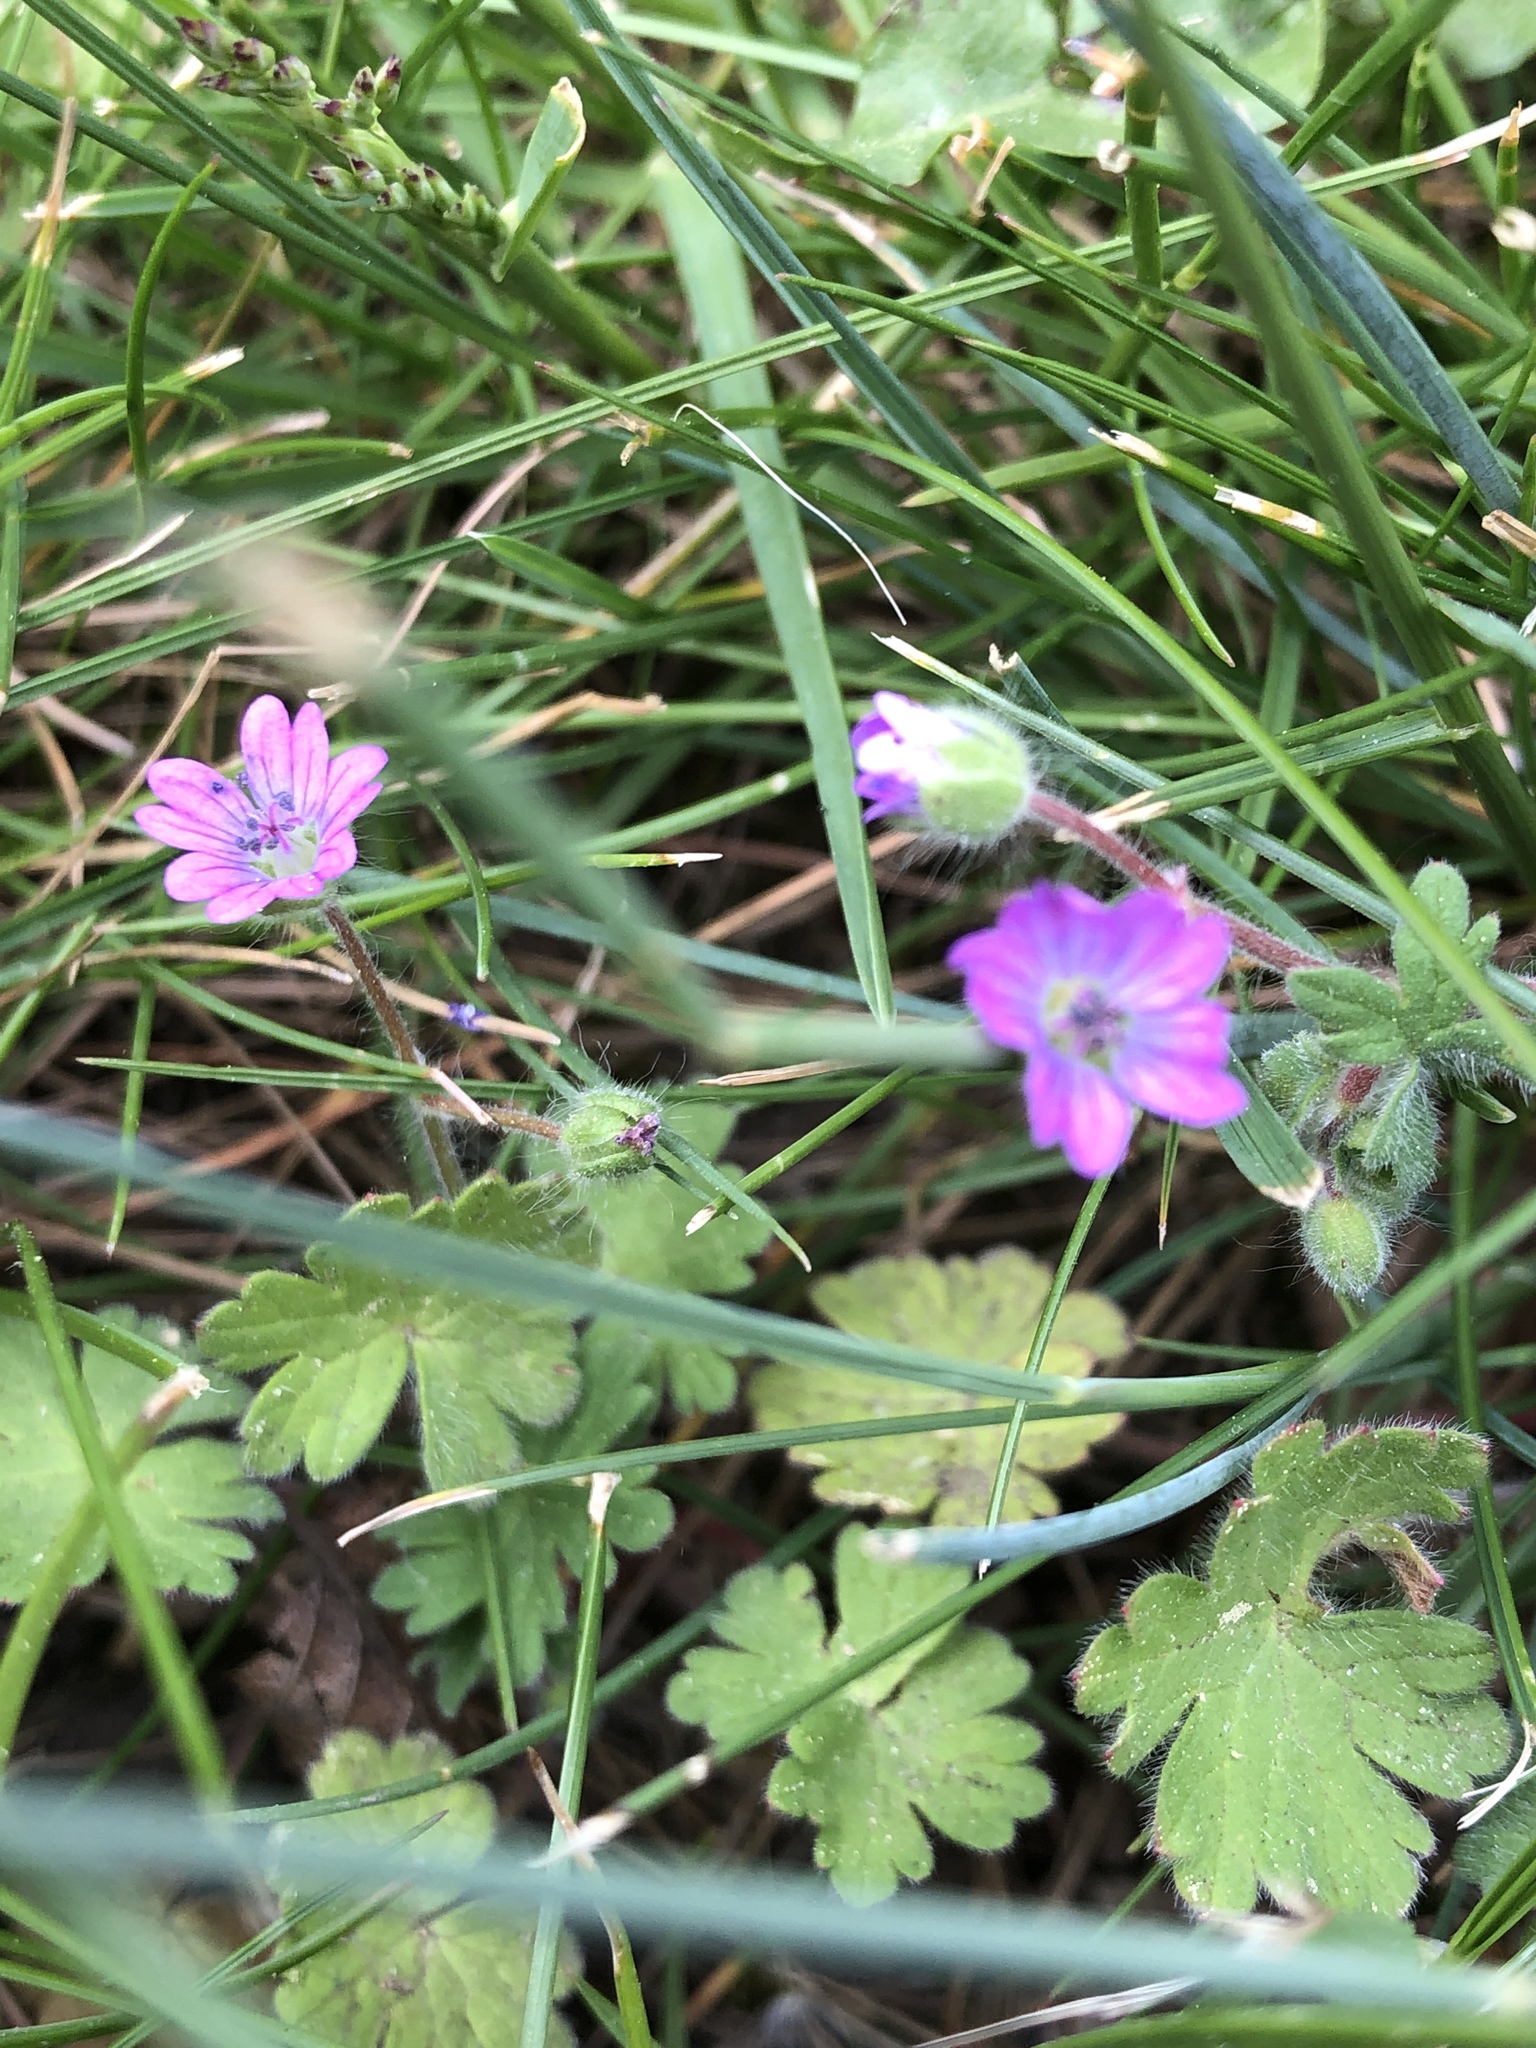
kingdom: Plantae
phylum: Tracheophyta
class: Magnoliopsida
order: Geraniales
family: Geraniaceae
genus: Geranium
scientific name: Geranium molle
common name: Dove's-foot crane's-bill
